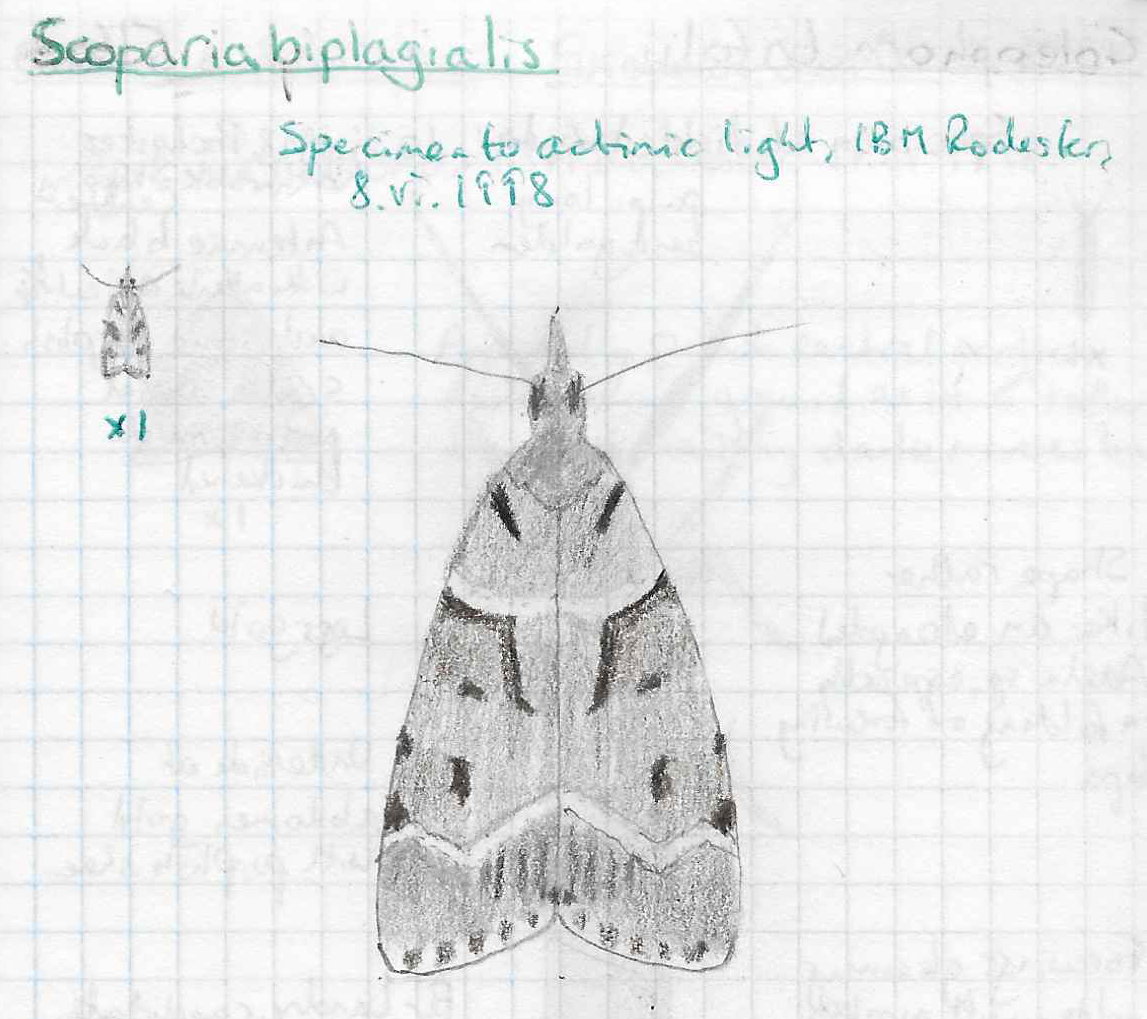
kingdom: Animalia
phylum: Arthropoda
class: Insecta
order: Lepidoptera
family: Crambidae
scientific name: Crambidae
